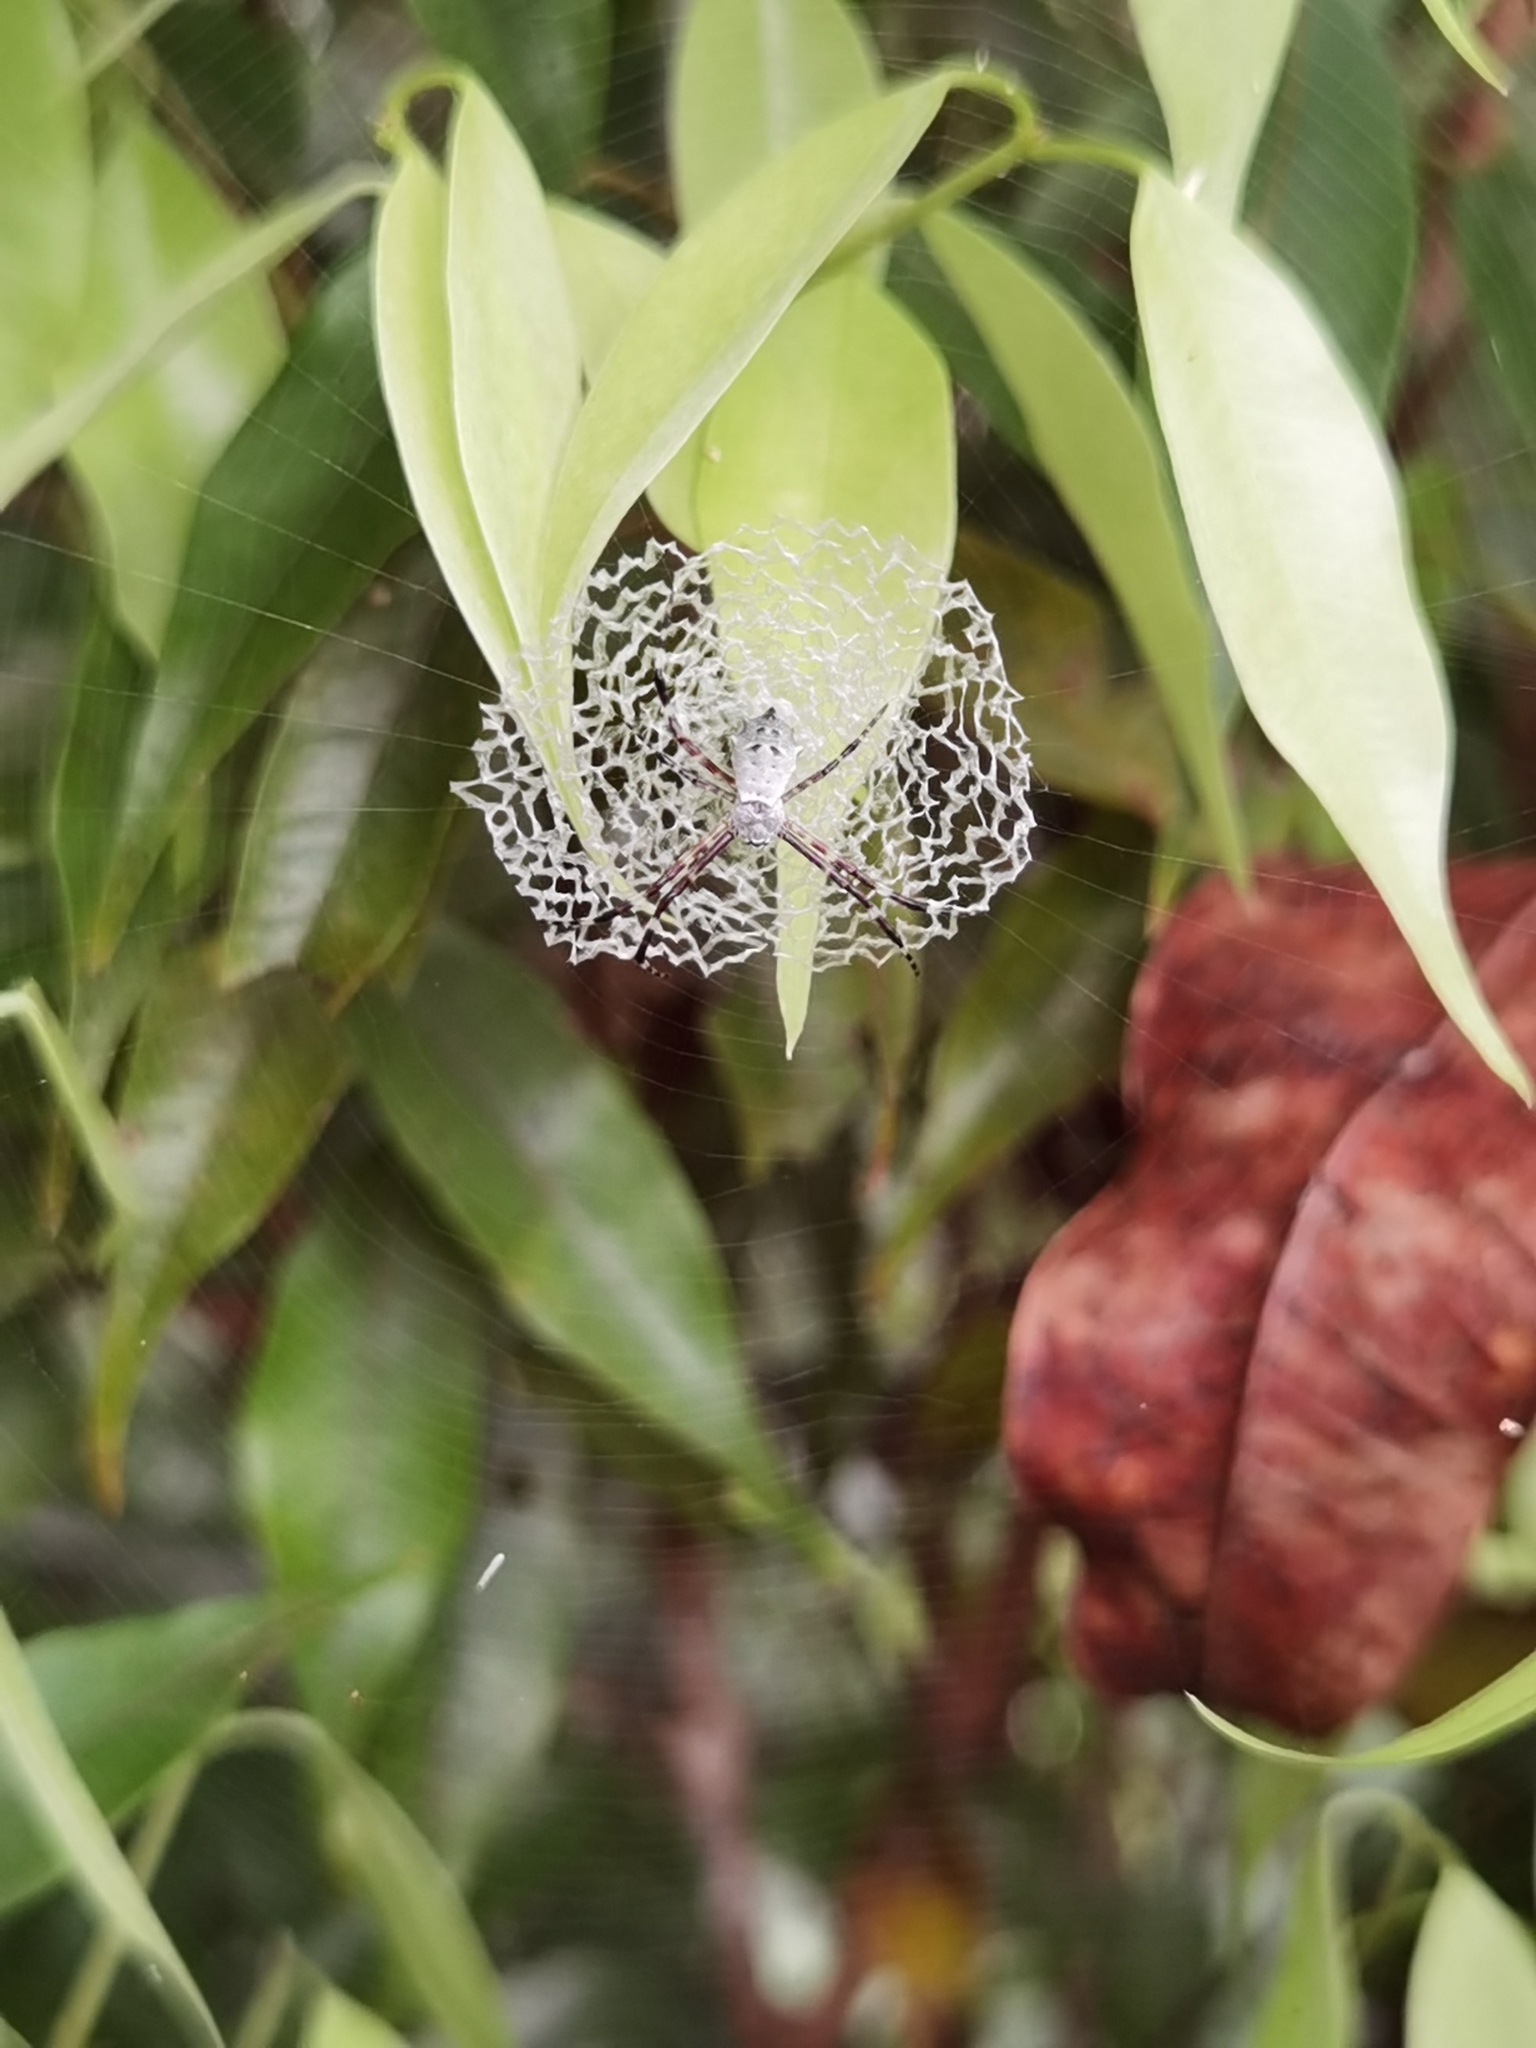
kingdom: Animalia
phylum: Arthropoda
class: Arachnida
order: Araneae
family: Araneidae
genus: Argiope
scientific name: Argiope submaronica
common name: Orb weavers
